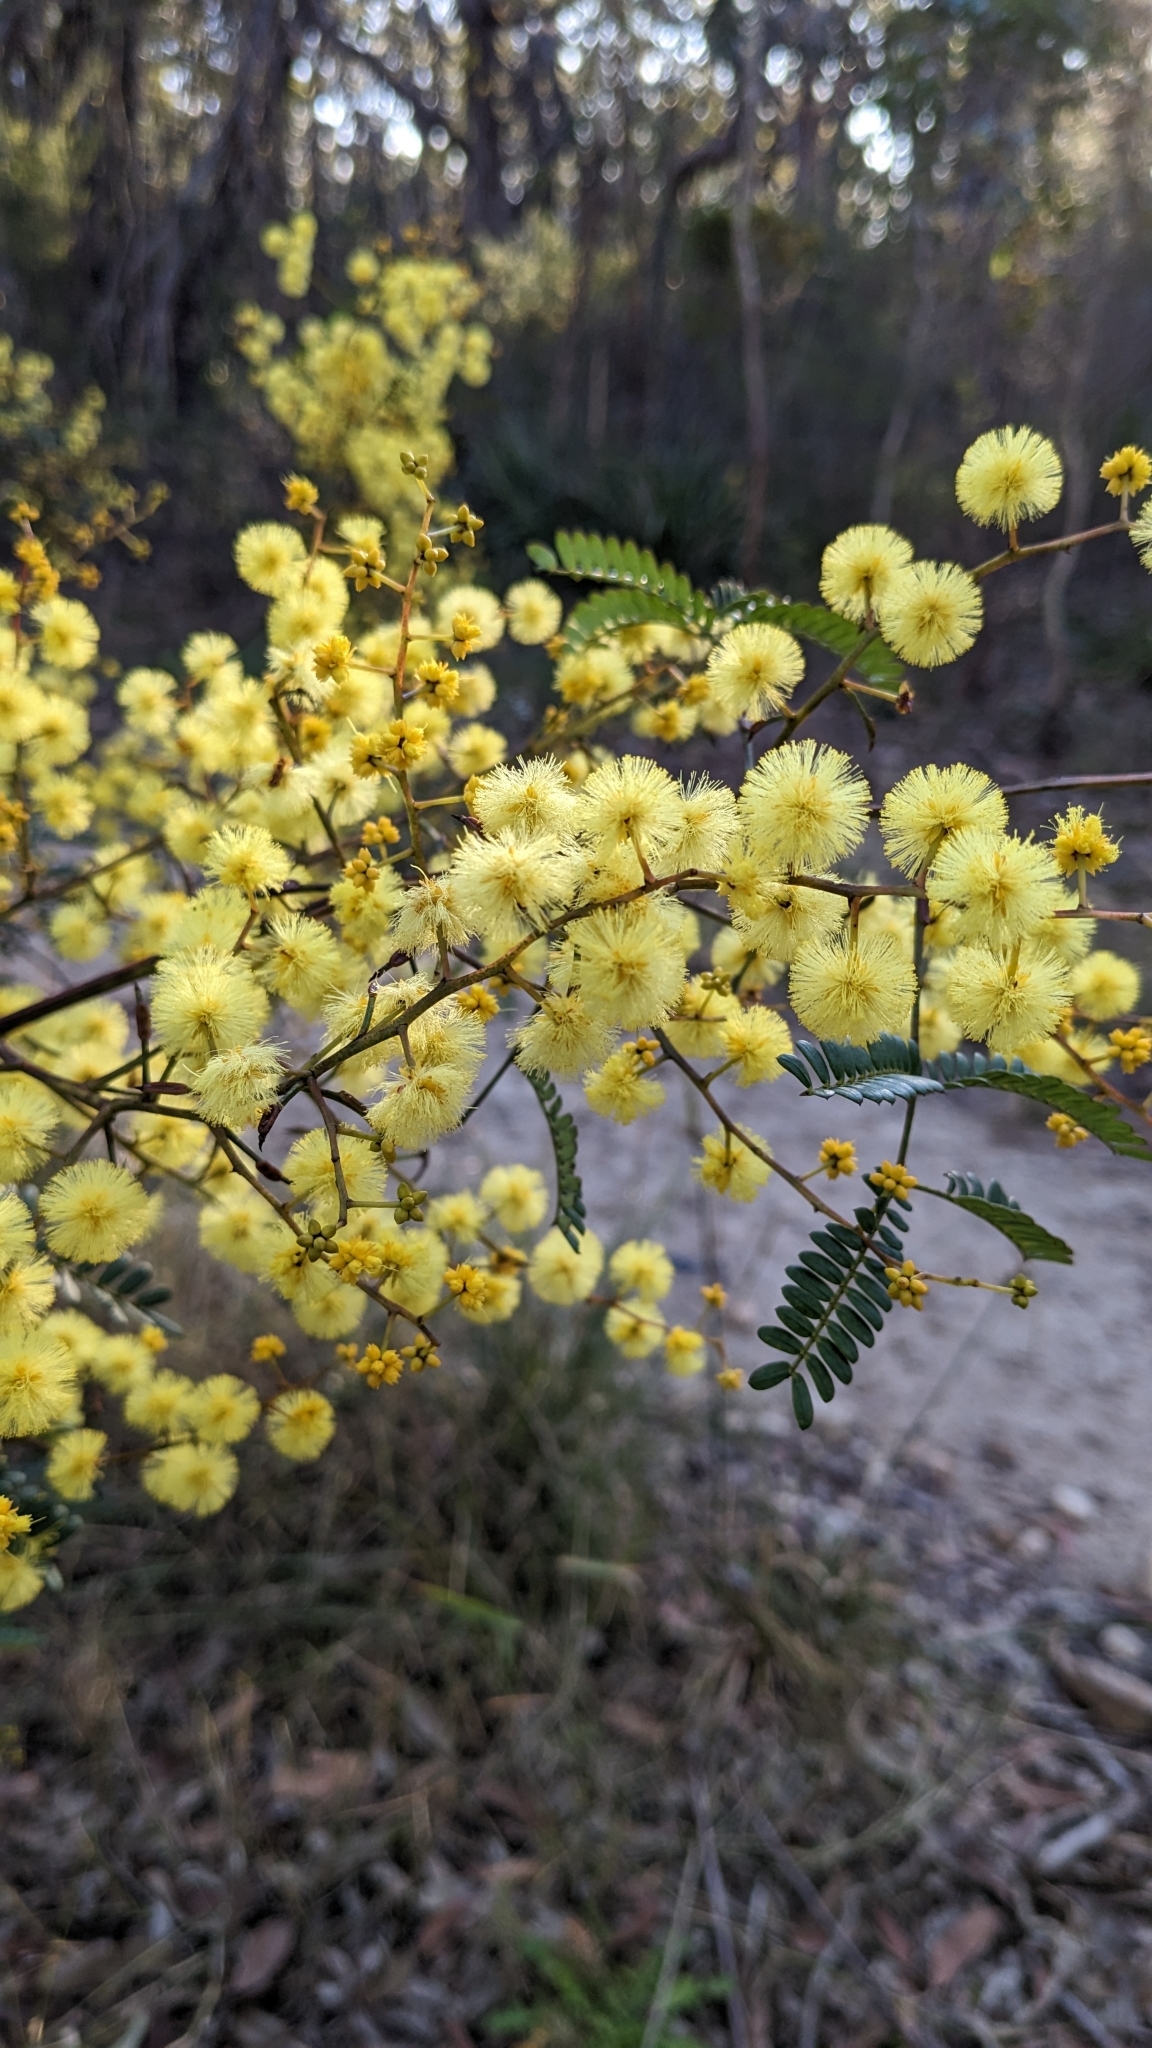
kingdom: Plantae
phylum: Tracheophyta
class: Magnoliopsida
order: Fabales
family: Fabaceae
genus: Acacia
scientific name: Acacia terminalis
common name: Cedar wattle
